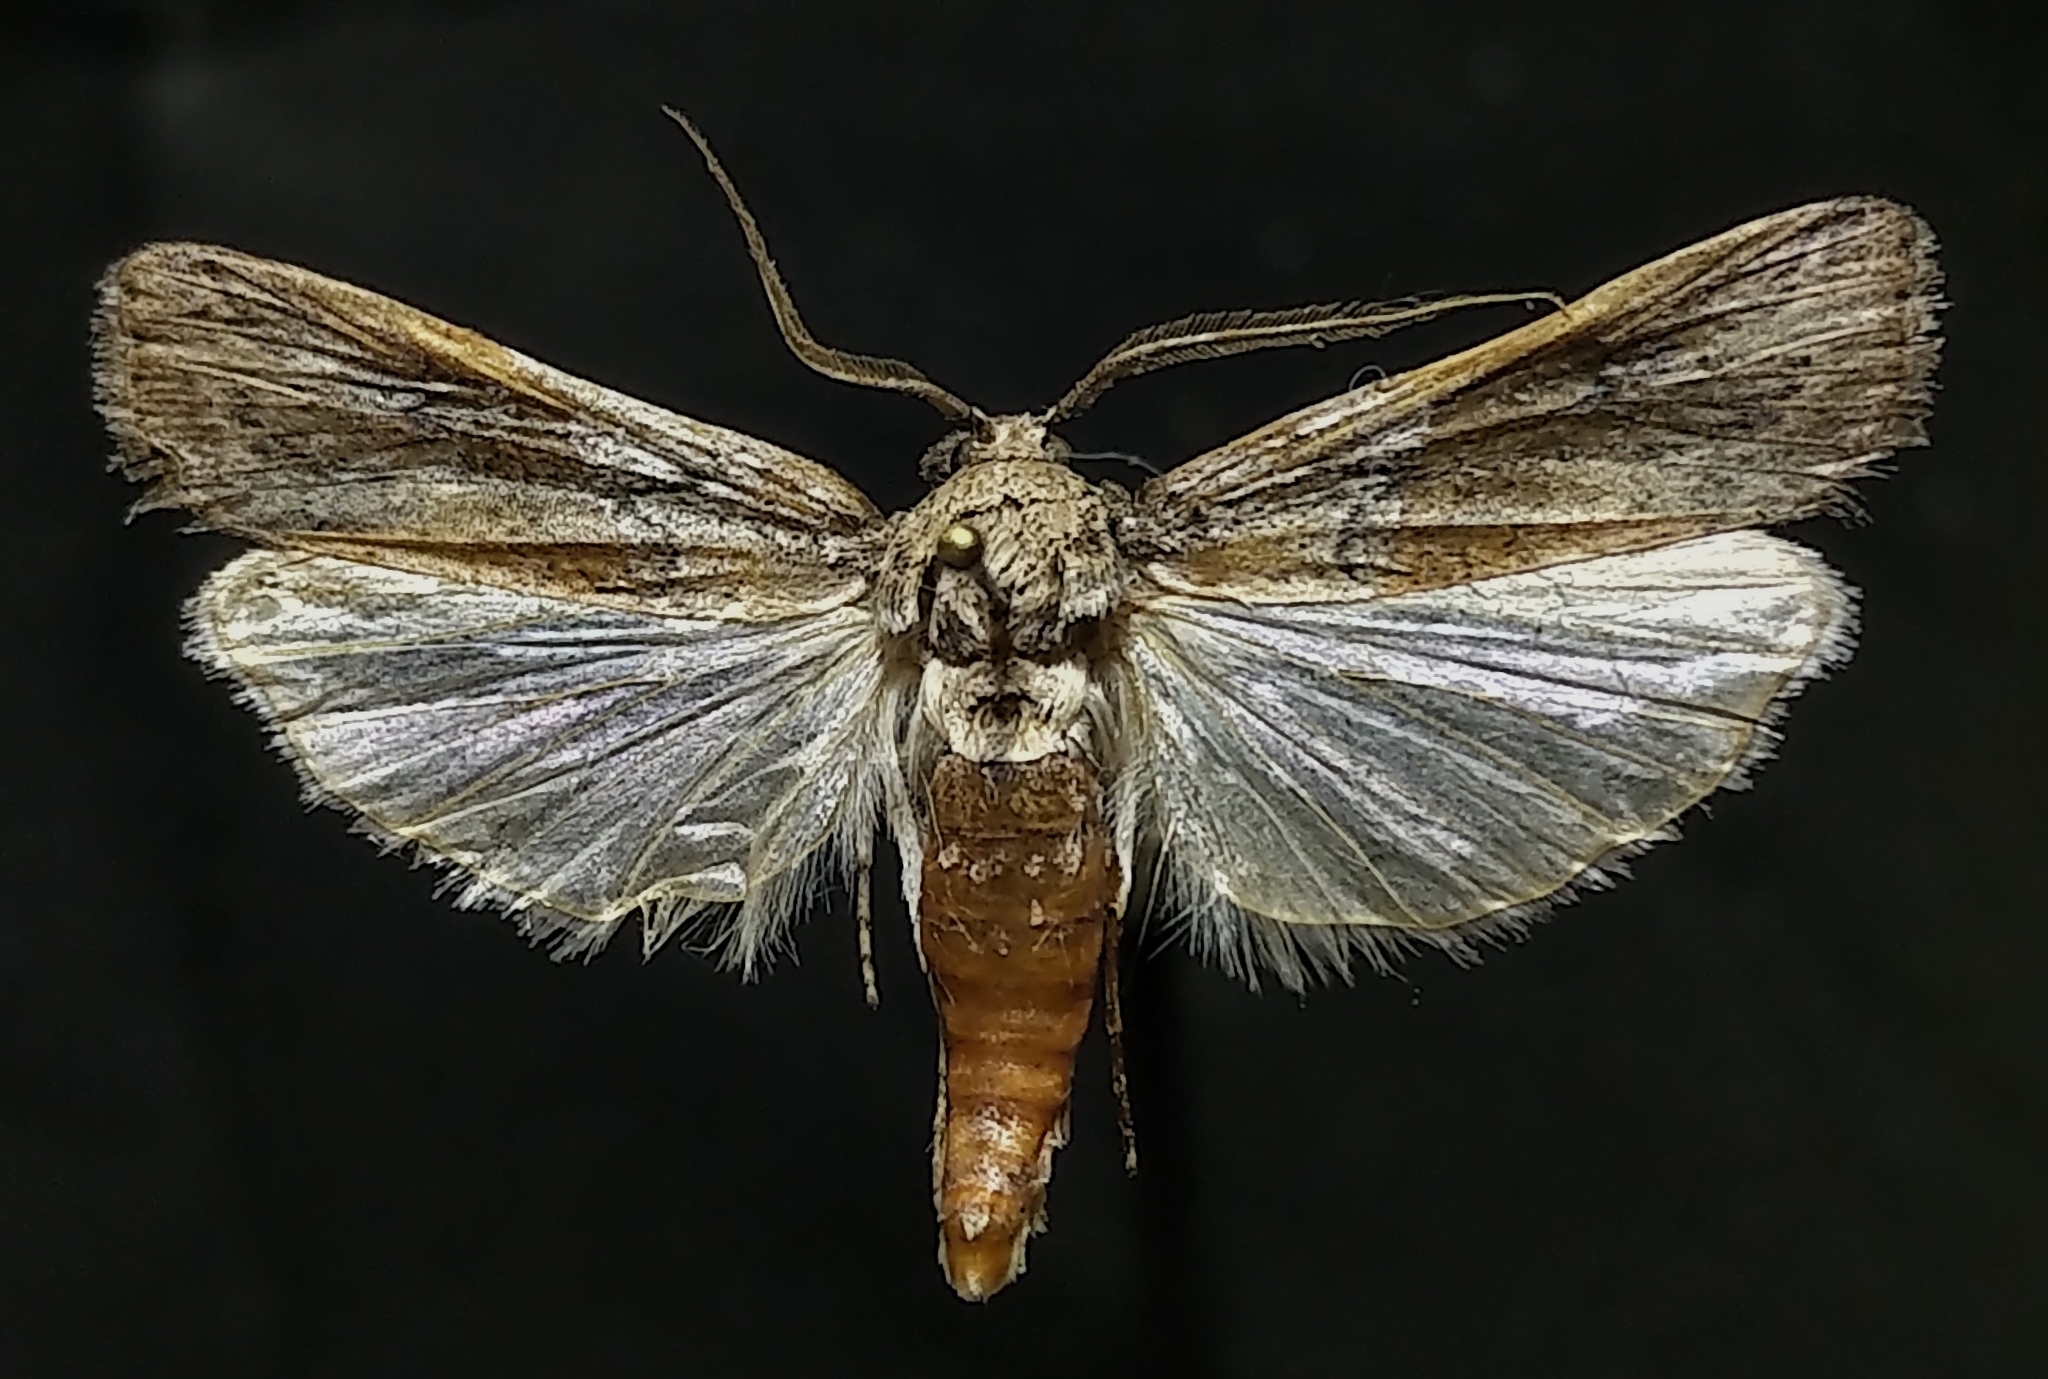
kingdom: Animalia
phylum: Arthropoda
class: Insecta
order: Lepidoptera
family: Pyralidae
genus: Melitara
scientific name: Melitara dentata
